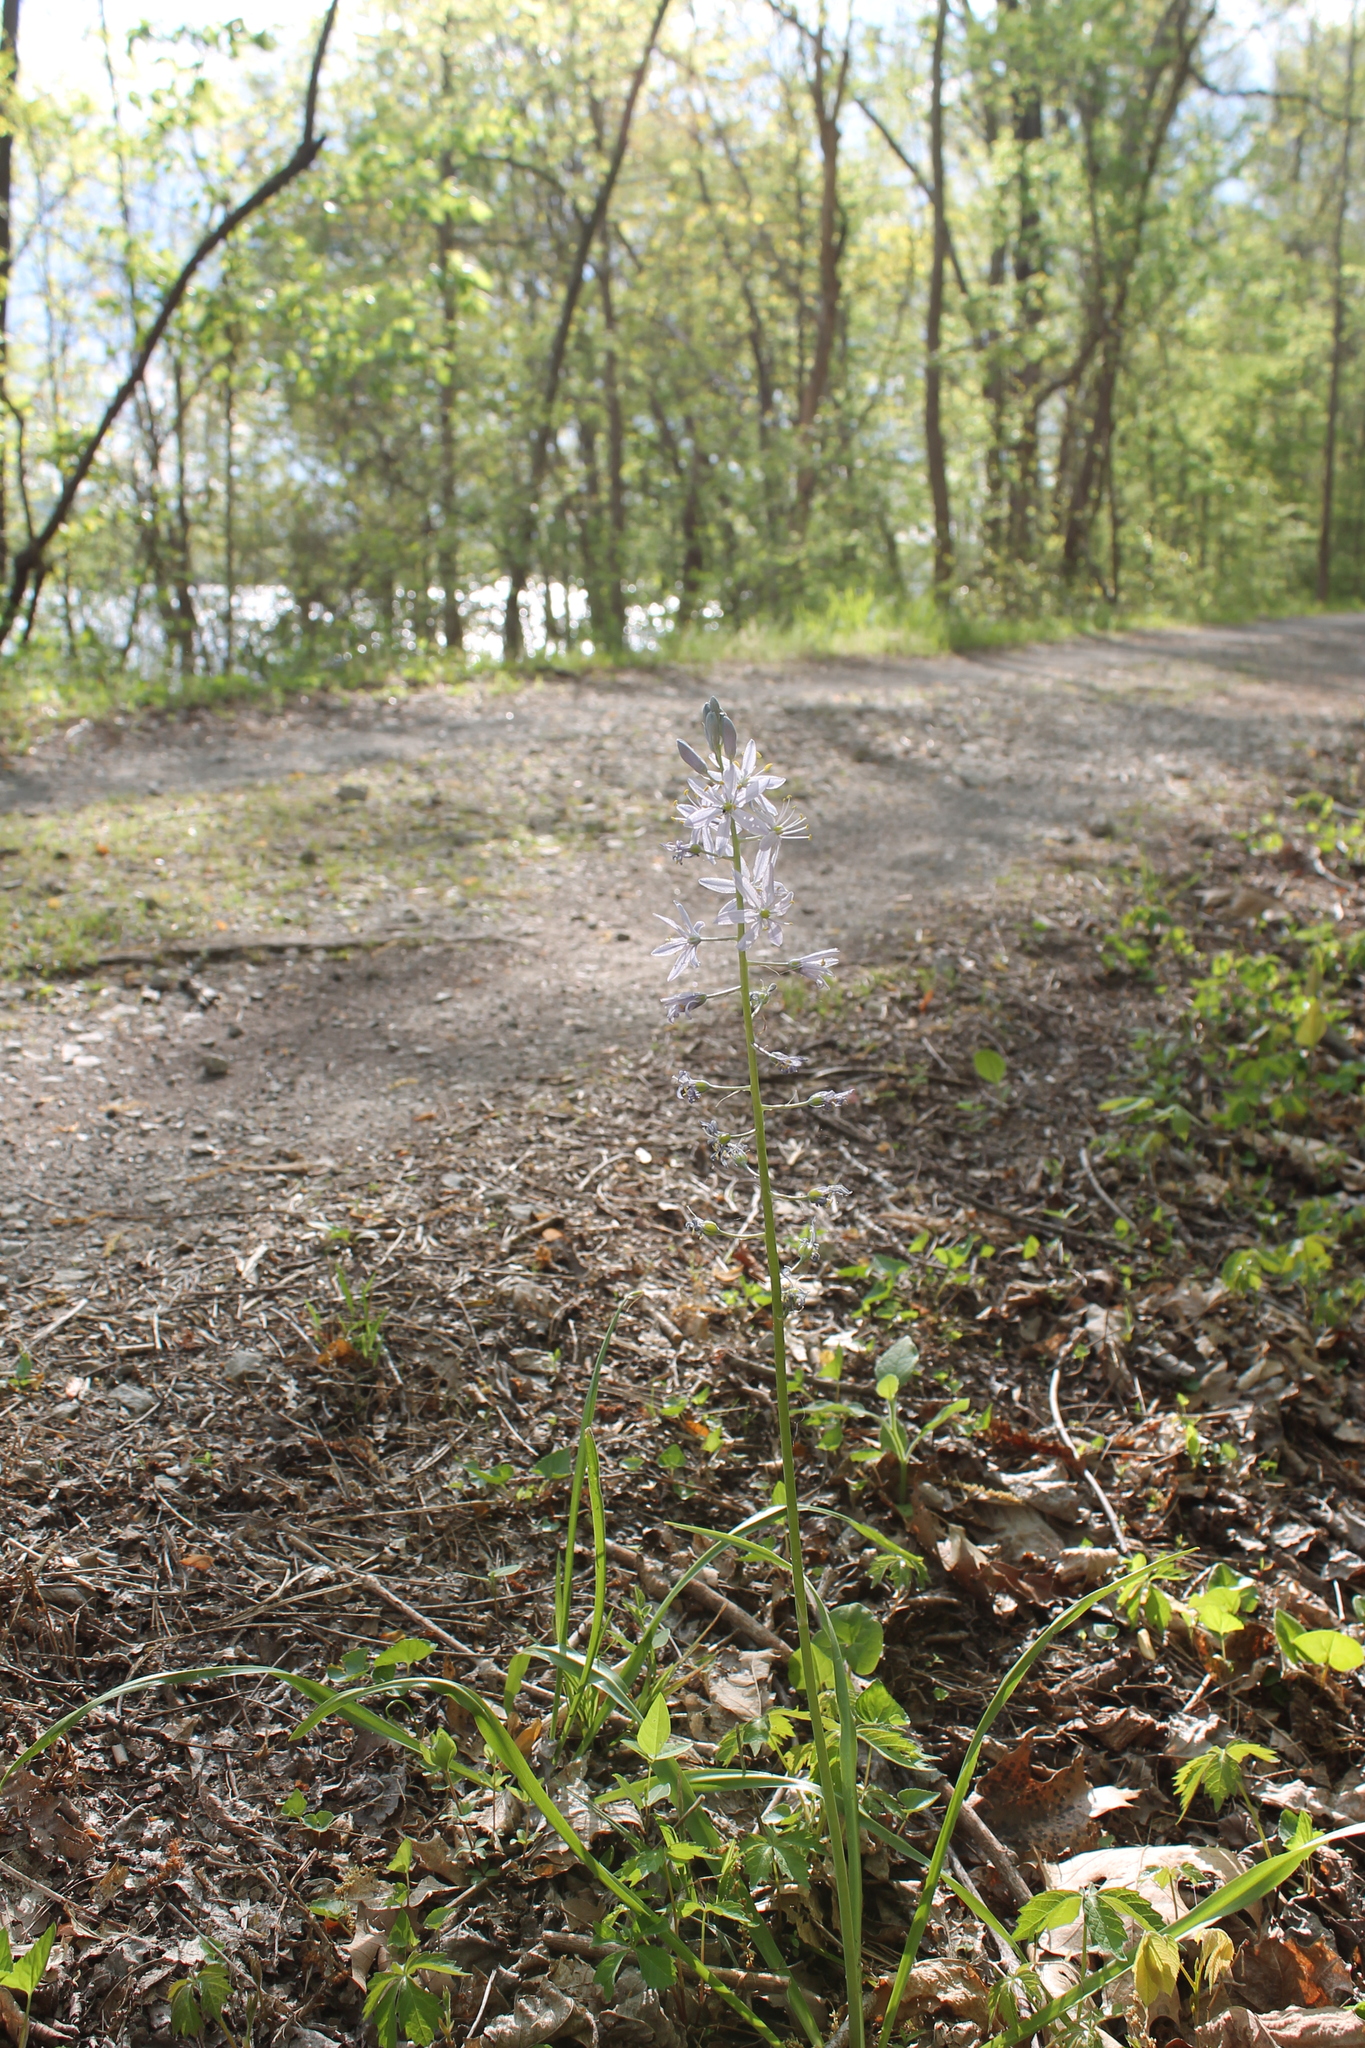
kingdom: Plantae
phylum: Tracheophyta
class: Liliopsida
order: Asparagales
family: Asparagaceae
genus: Camassia
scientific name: Camassia scilloides
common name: Wild hyacinth
